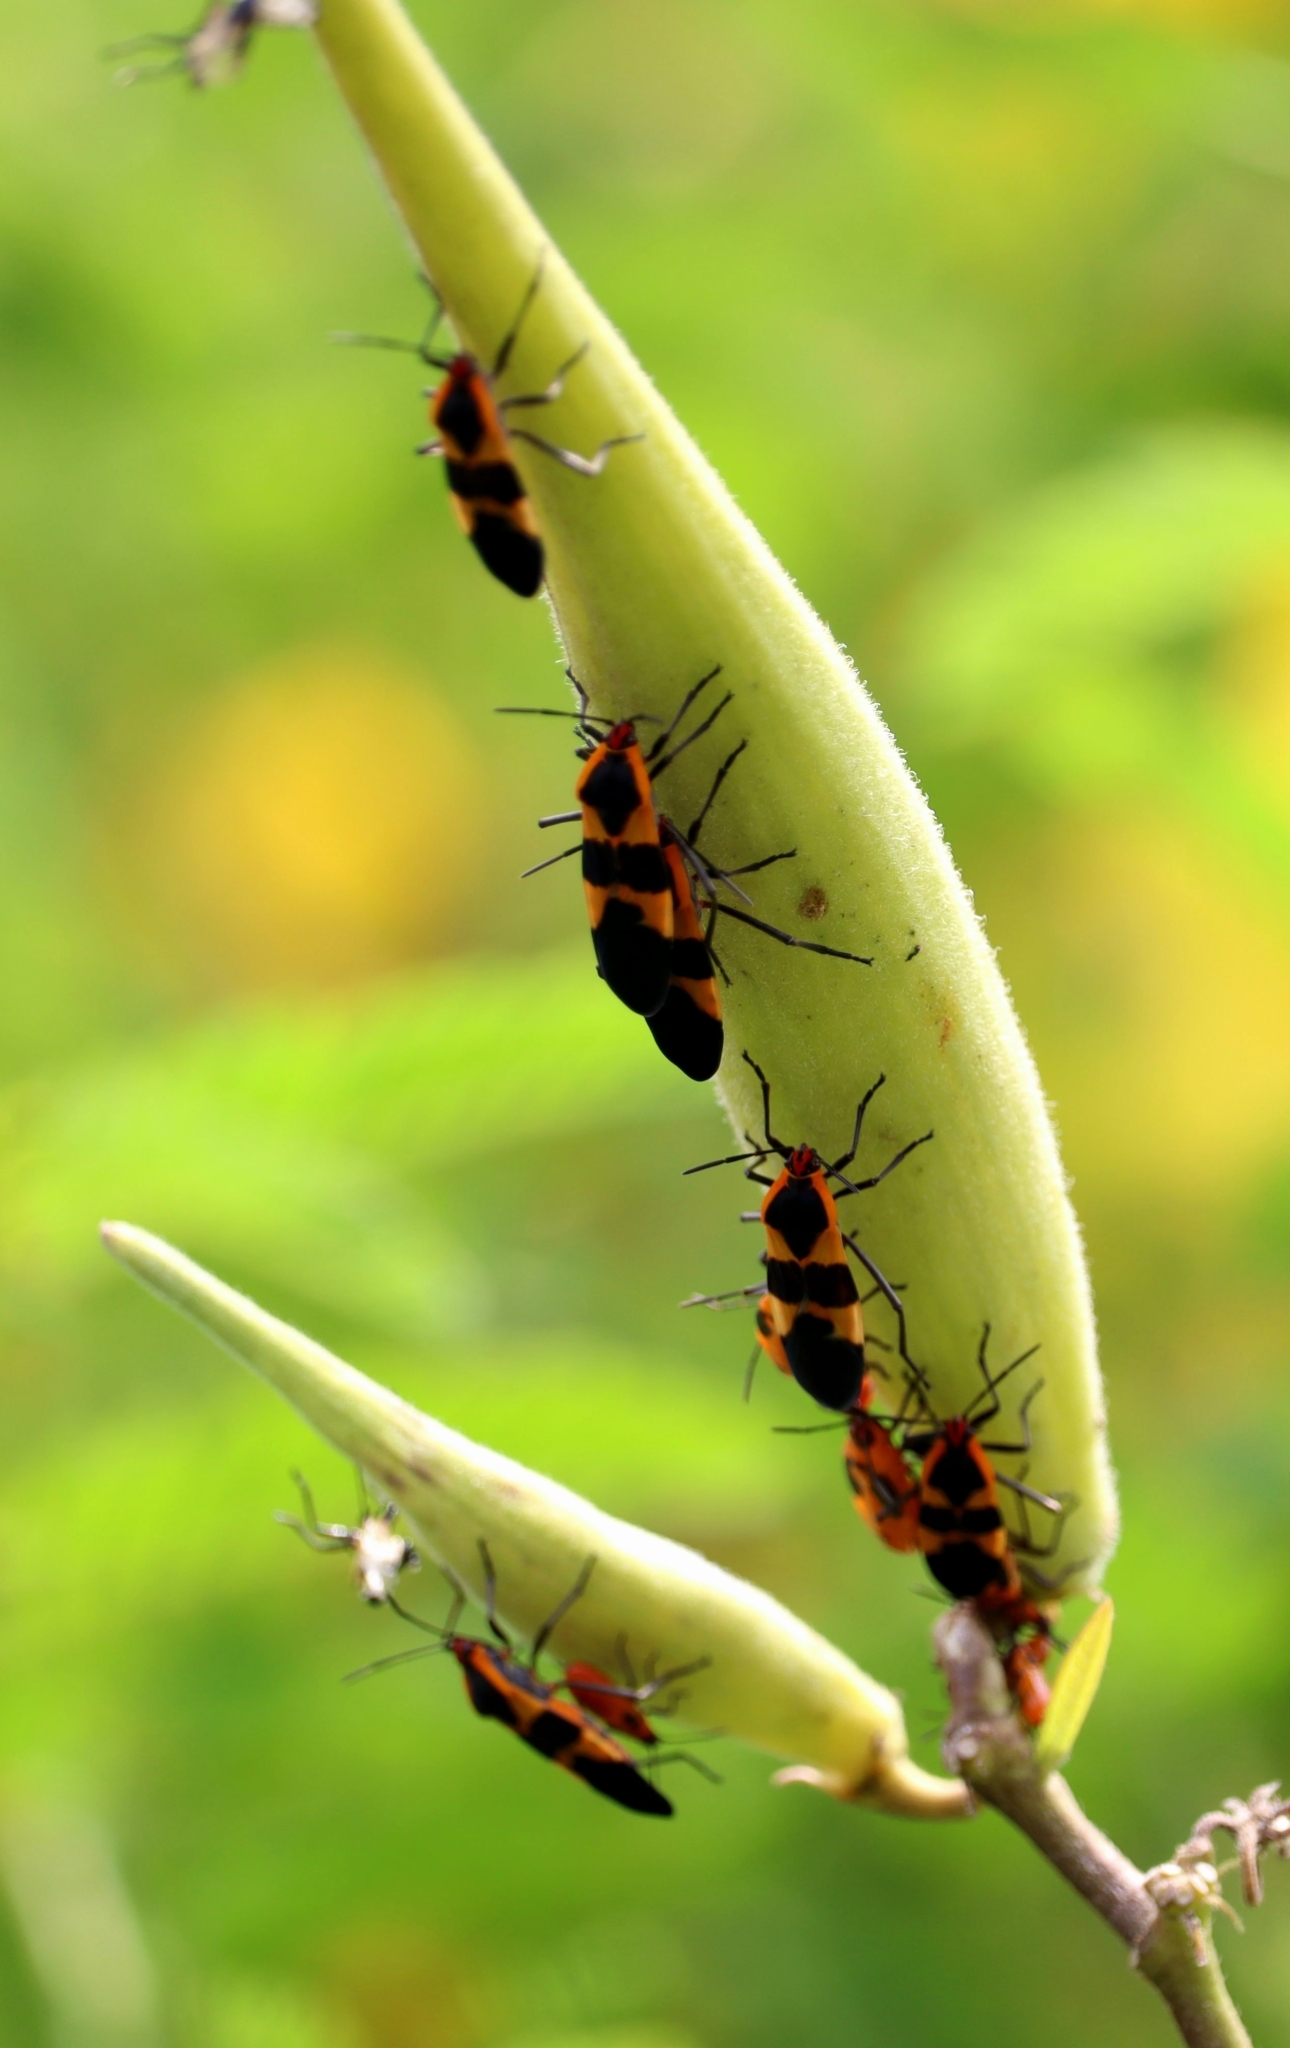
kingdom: Animalia
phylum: Arthropoda
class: Insecta
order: Hemiptera
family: Lygaeidae
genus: Oncopeltus
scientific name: Oncopeltus fasciatus
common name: Large milkweed bug
